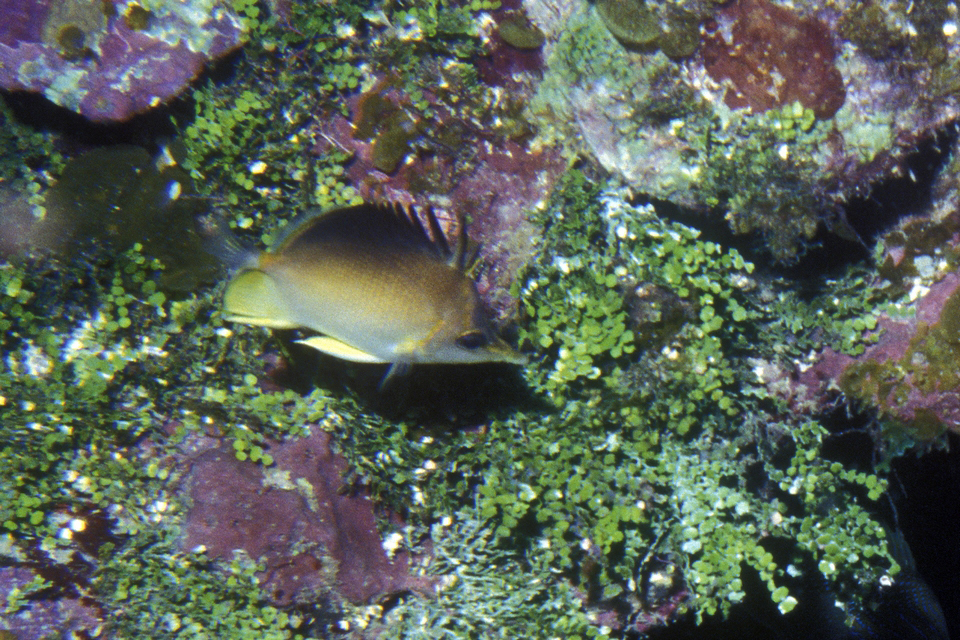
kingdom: Animalia
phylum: Chordata
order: Perciformes
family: Chaetodontidae
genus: Prognathodes
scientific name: Prognathodes aculeatus
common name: Longsnout butterflyfish
